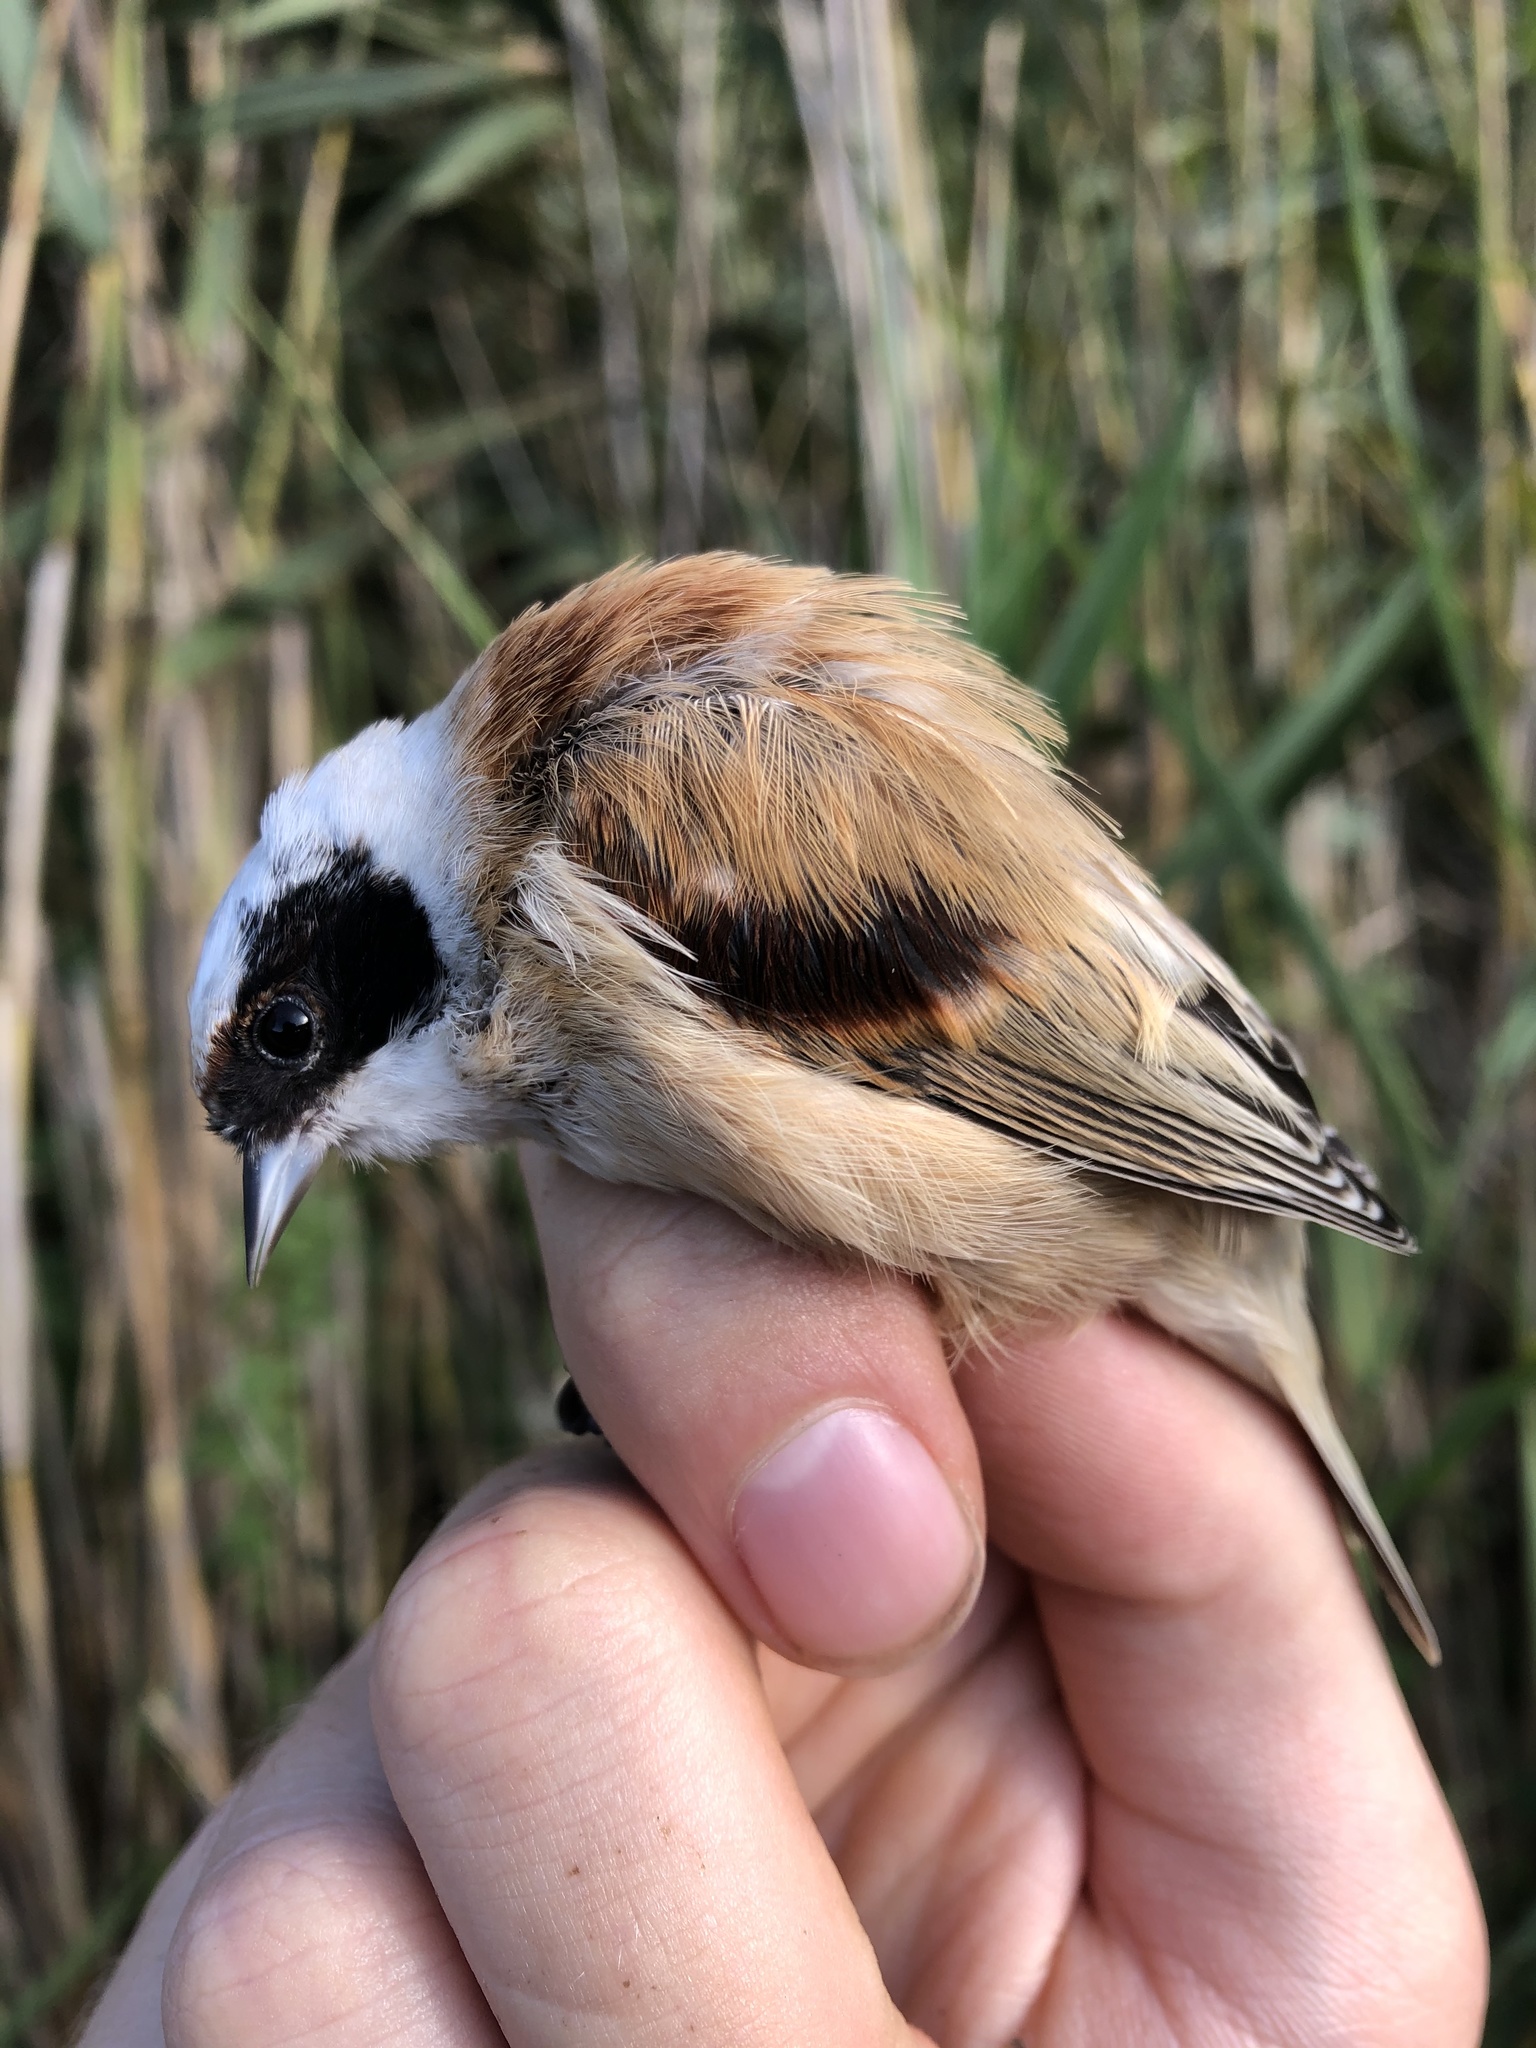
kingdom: Animalia
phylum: Chordata
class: Aves
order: Passeriformes
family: Remizidae
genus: Remiz
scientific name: Remiz pendulinus
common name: Eurasian penduline tit
